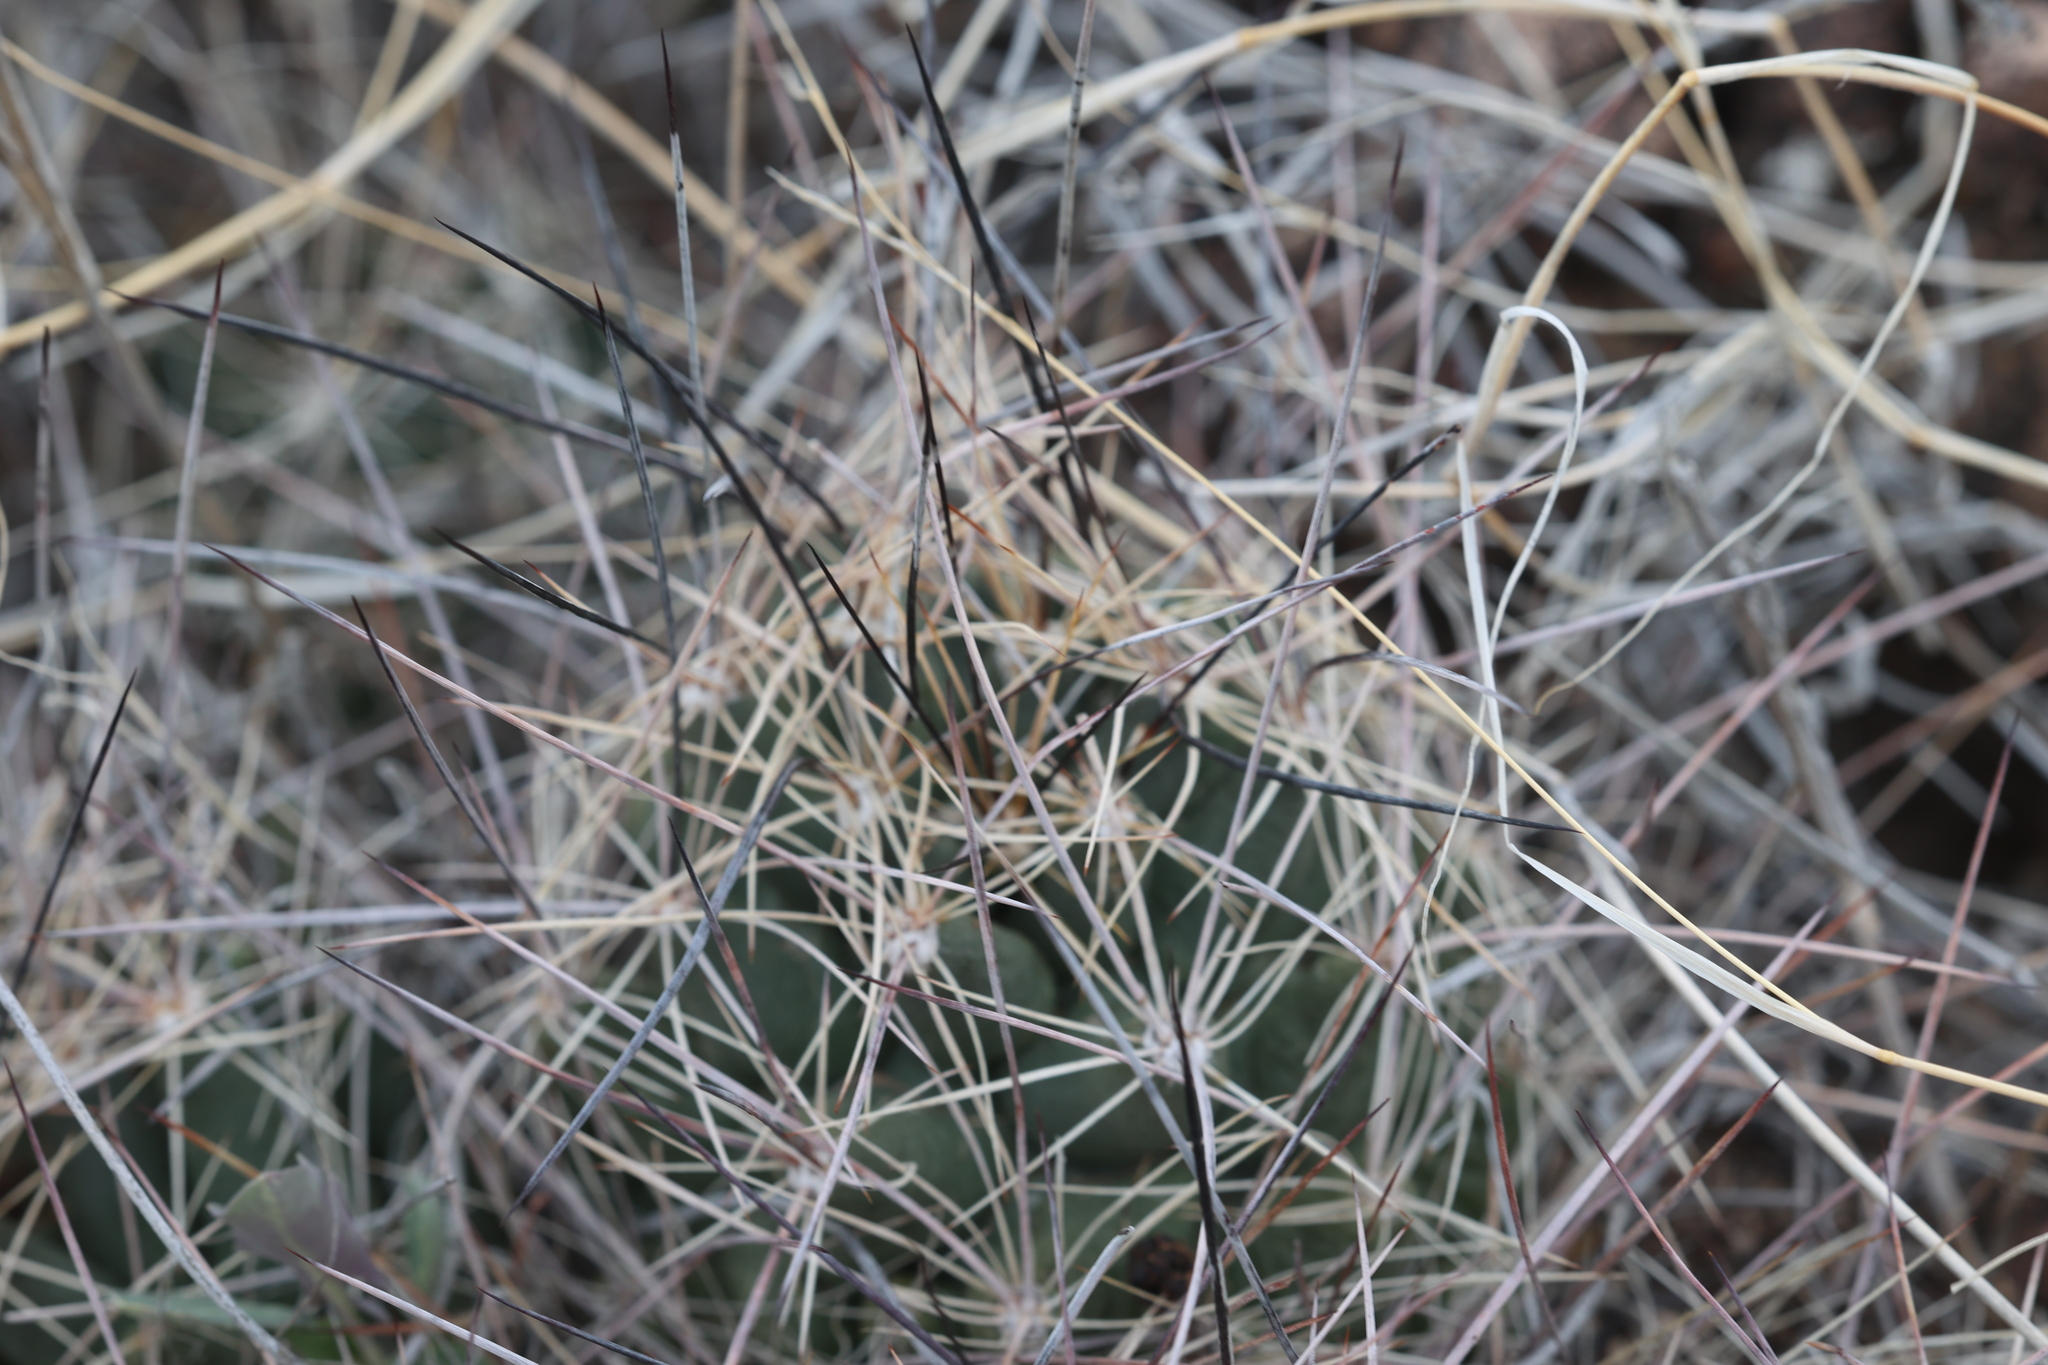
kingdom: Plantae
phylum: Tracheophyta
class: Magnoliopsida
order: Caryophyllales
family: Cactaceae
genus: Coryphantha
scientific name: Coryphantha macromeris
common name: Nipple beehive cactus
